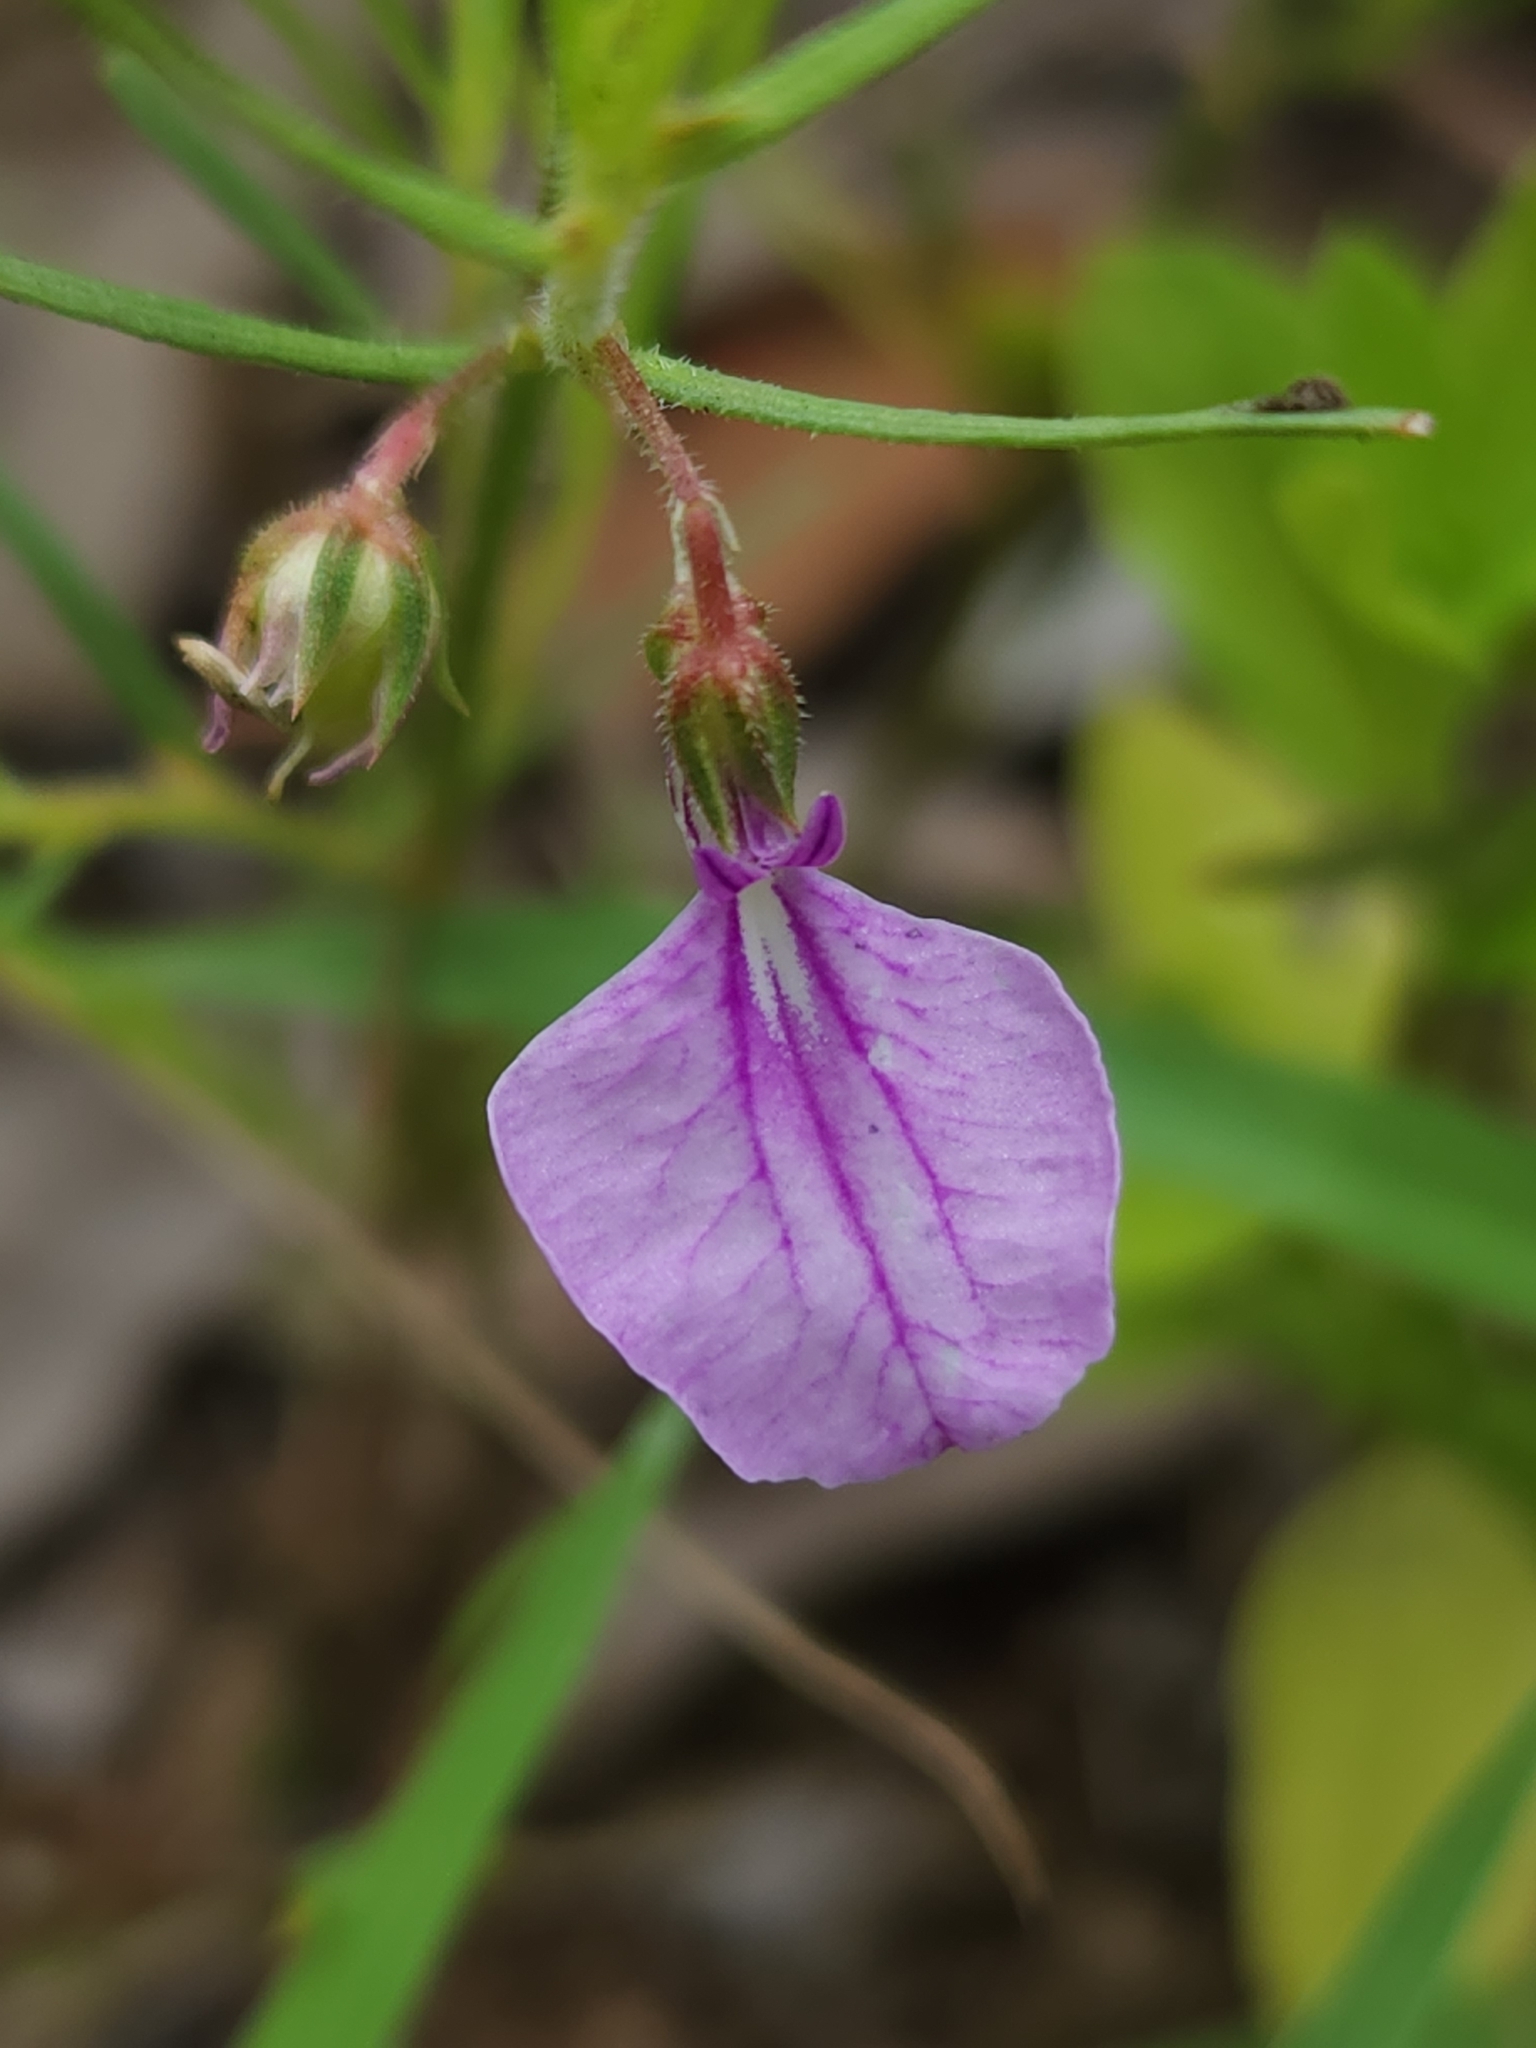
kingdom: Plantae
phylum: Tracheophyta
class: Magnoliopsida
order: Malpighiales
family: Violaceae
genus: Pigea
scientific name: Pigea enneasperma
